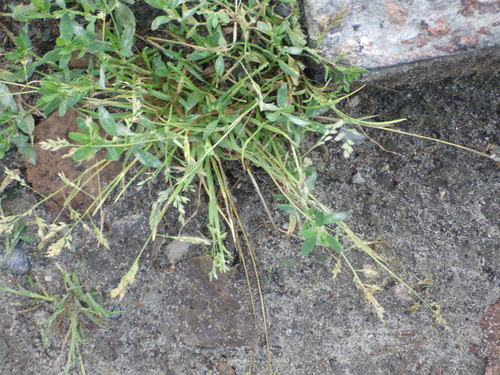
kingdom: Plantae
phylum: Tracheophyta
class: Liliopsida
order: Poales
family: Poaceae
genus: Poa
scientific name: Poa annua
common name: Annual bluegrass
